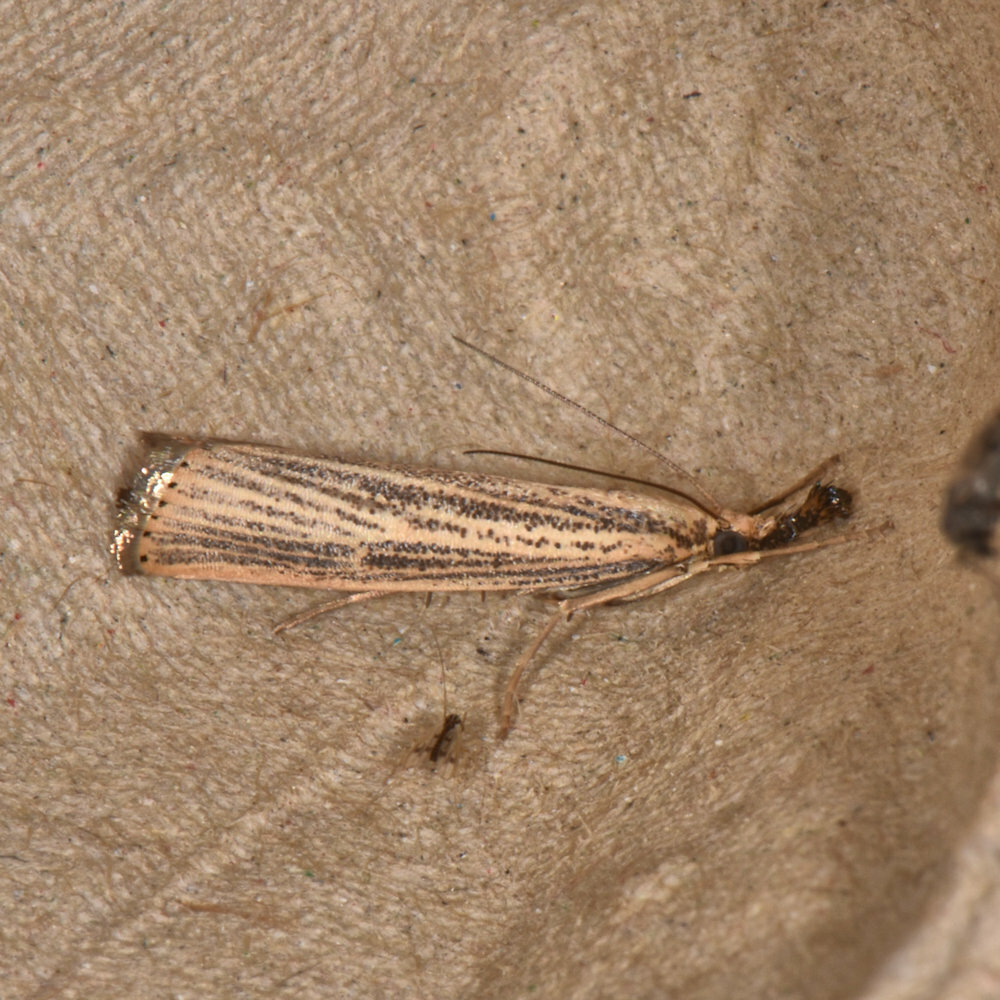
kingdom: Animalia
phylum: Arthropoda
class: Insecta
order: Lepidoptera
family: Crambidae
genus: Agriphila
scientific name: Agriphila vulgivagellus
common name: Vagabond crambus moth
